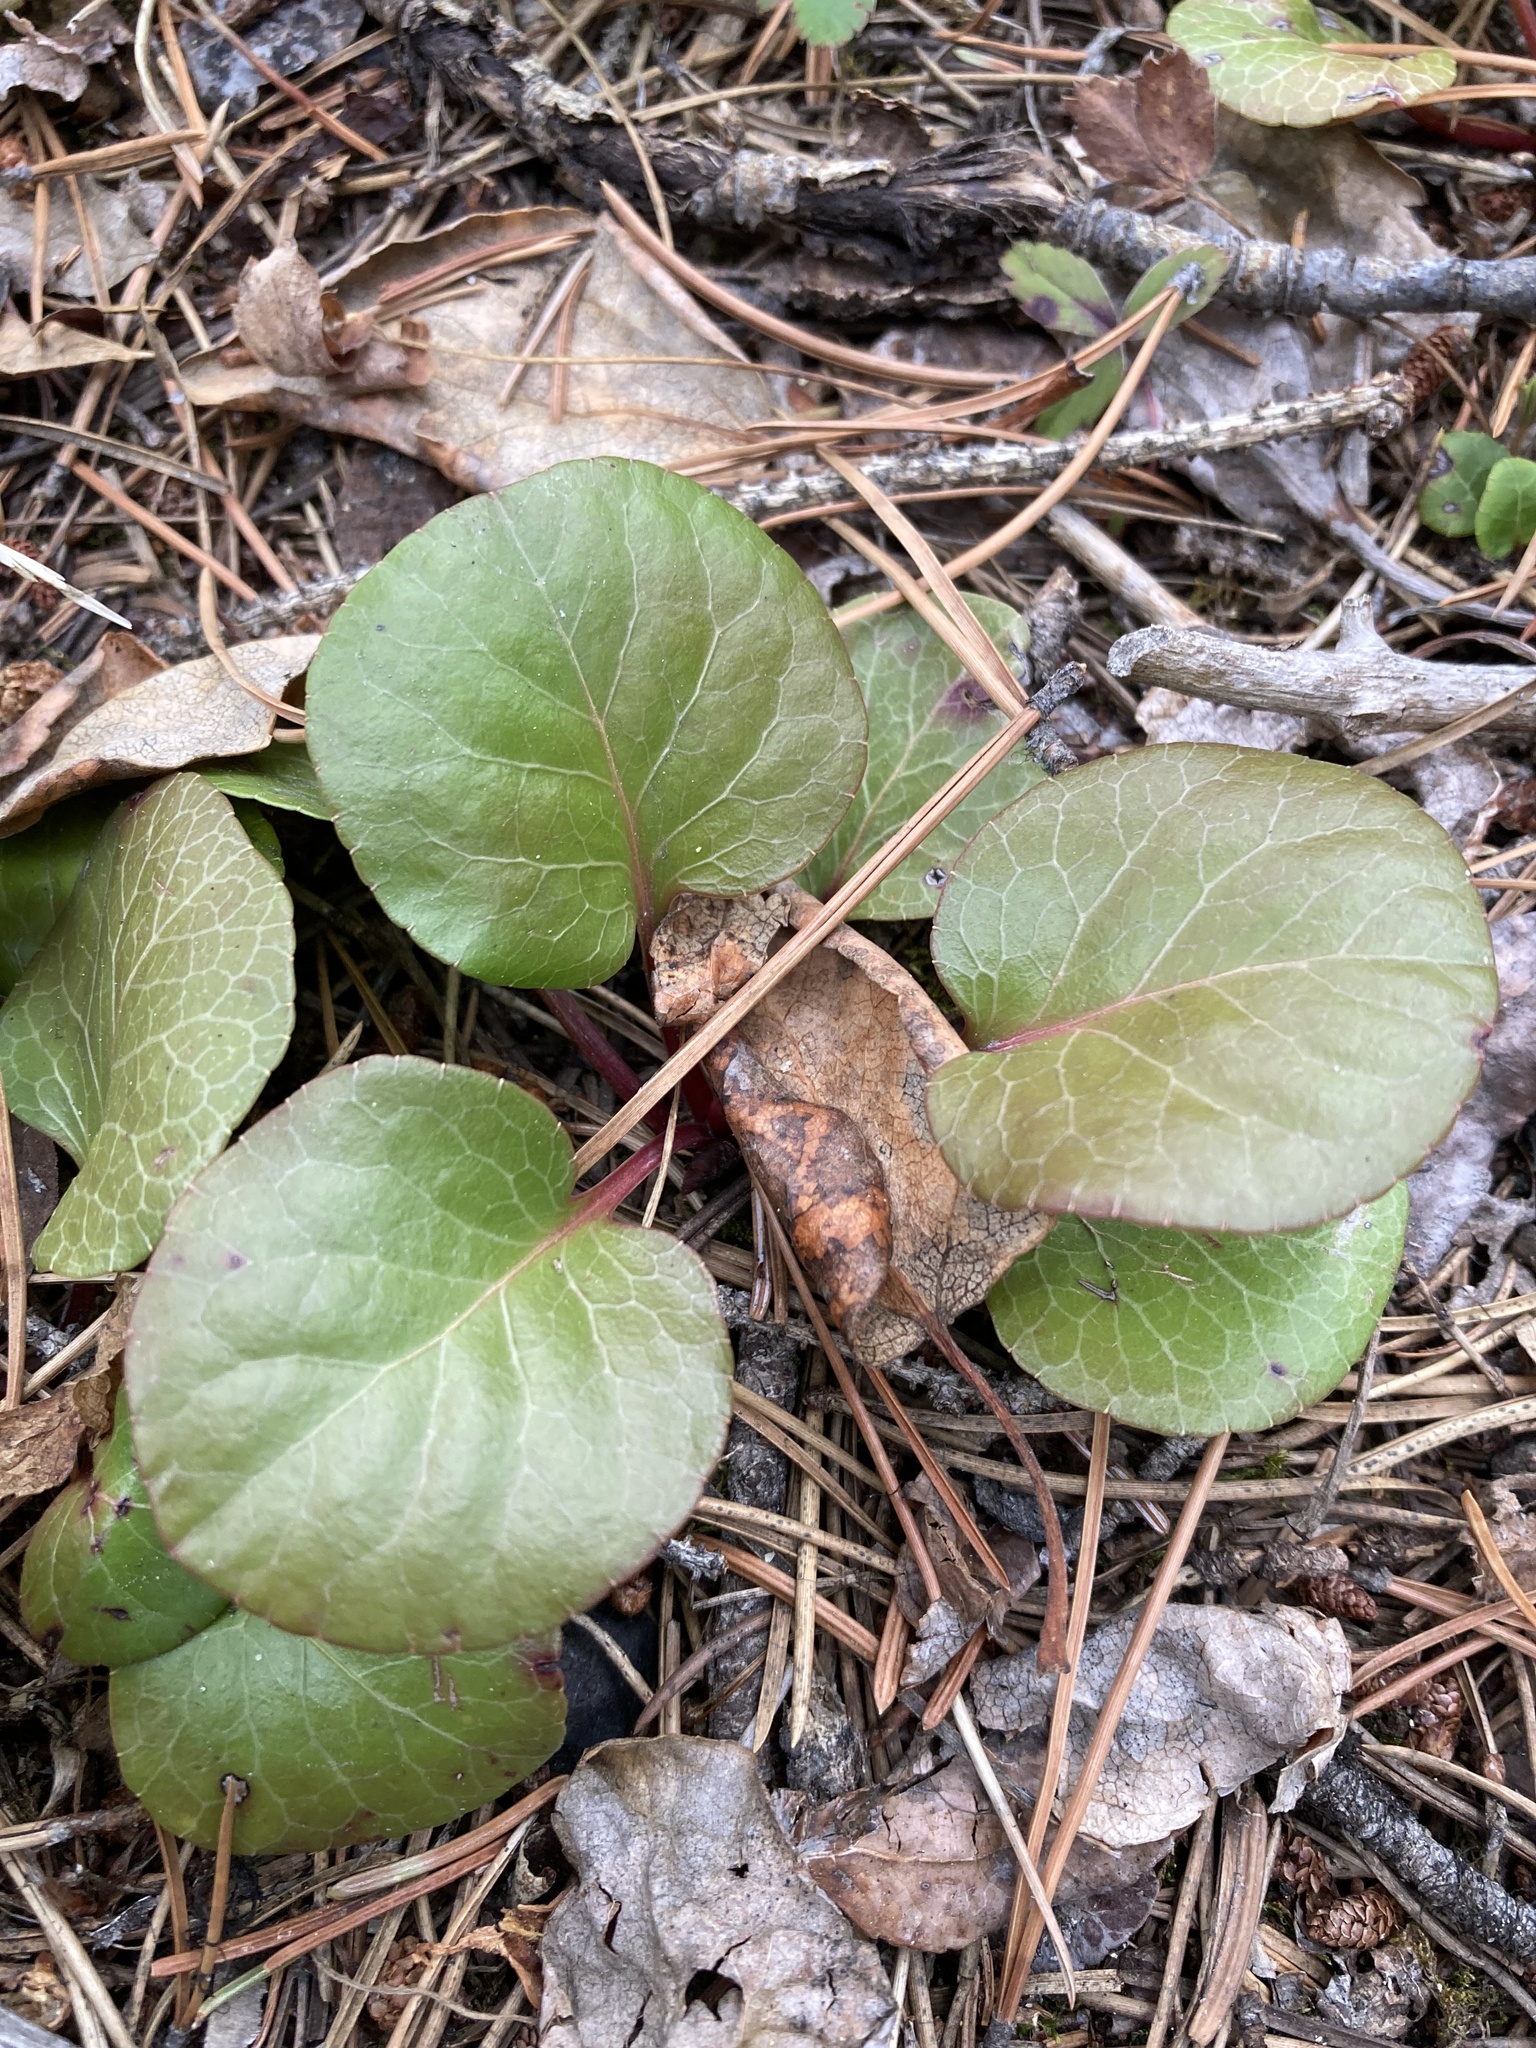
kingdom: Plantae
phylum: Tracheophyta
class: Magnoliopsida
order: Ericales
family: Ericaceae
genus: Pyrola
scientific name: Pyrola asarifolia
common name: Bog wintergreen
